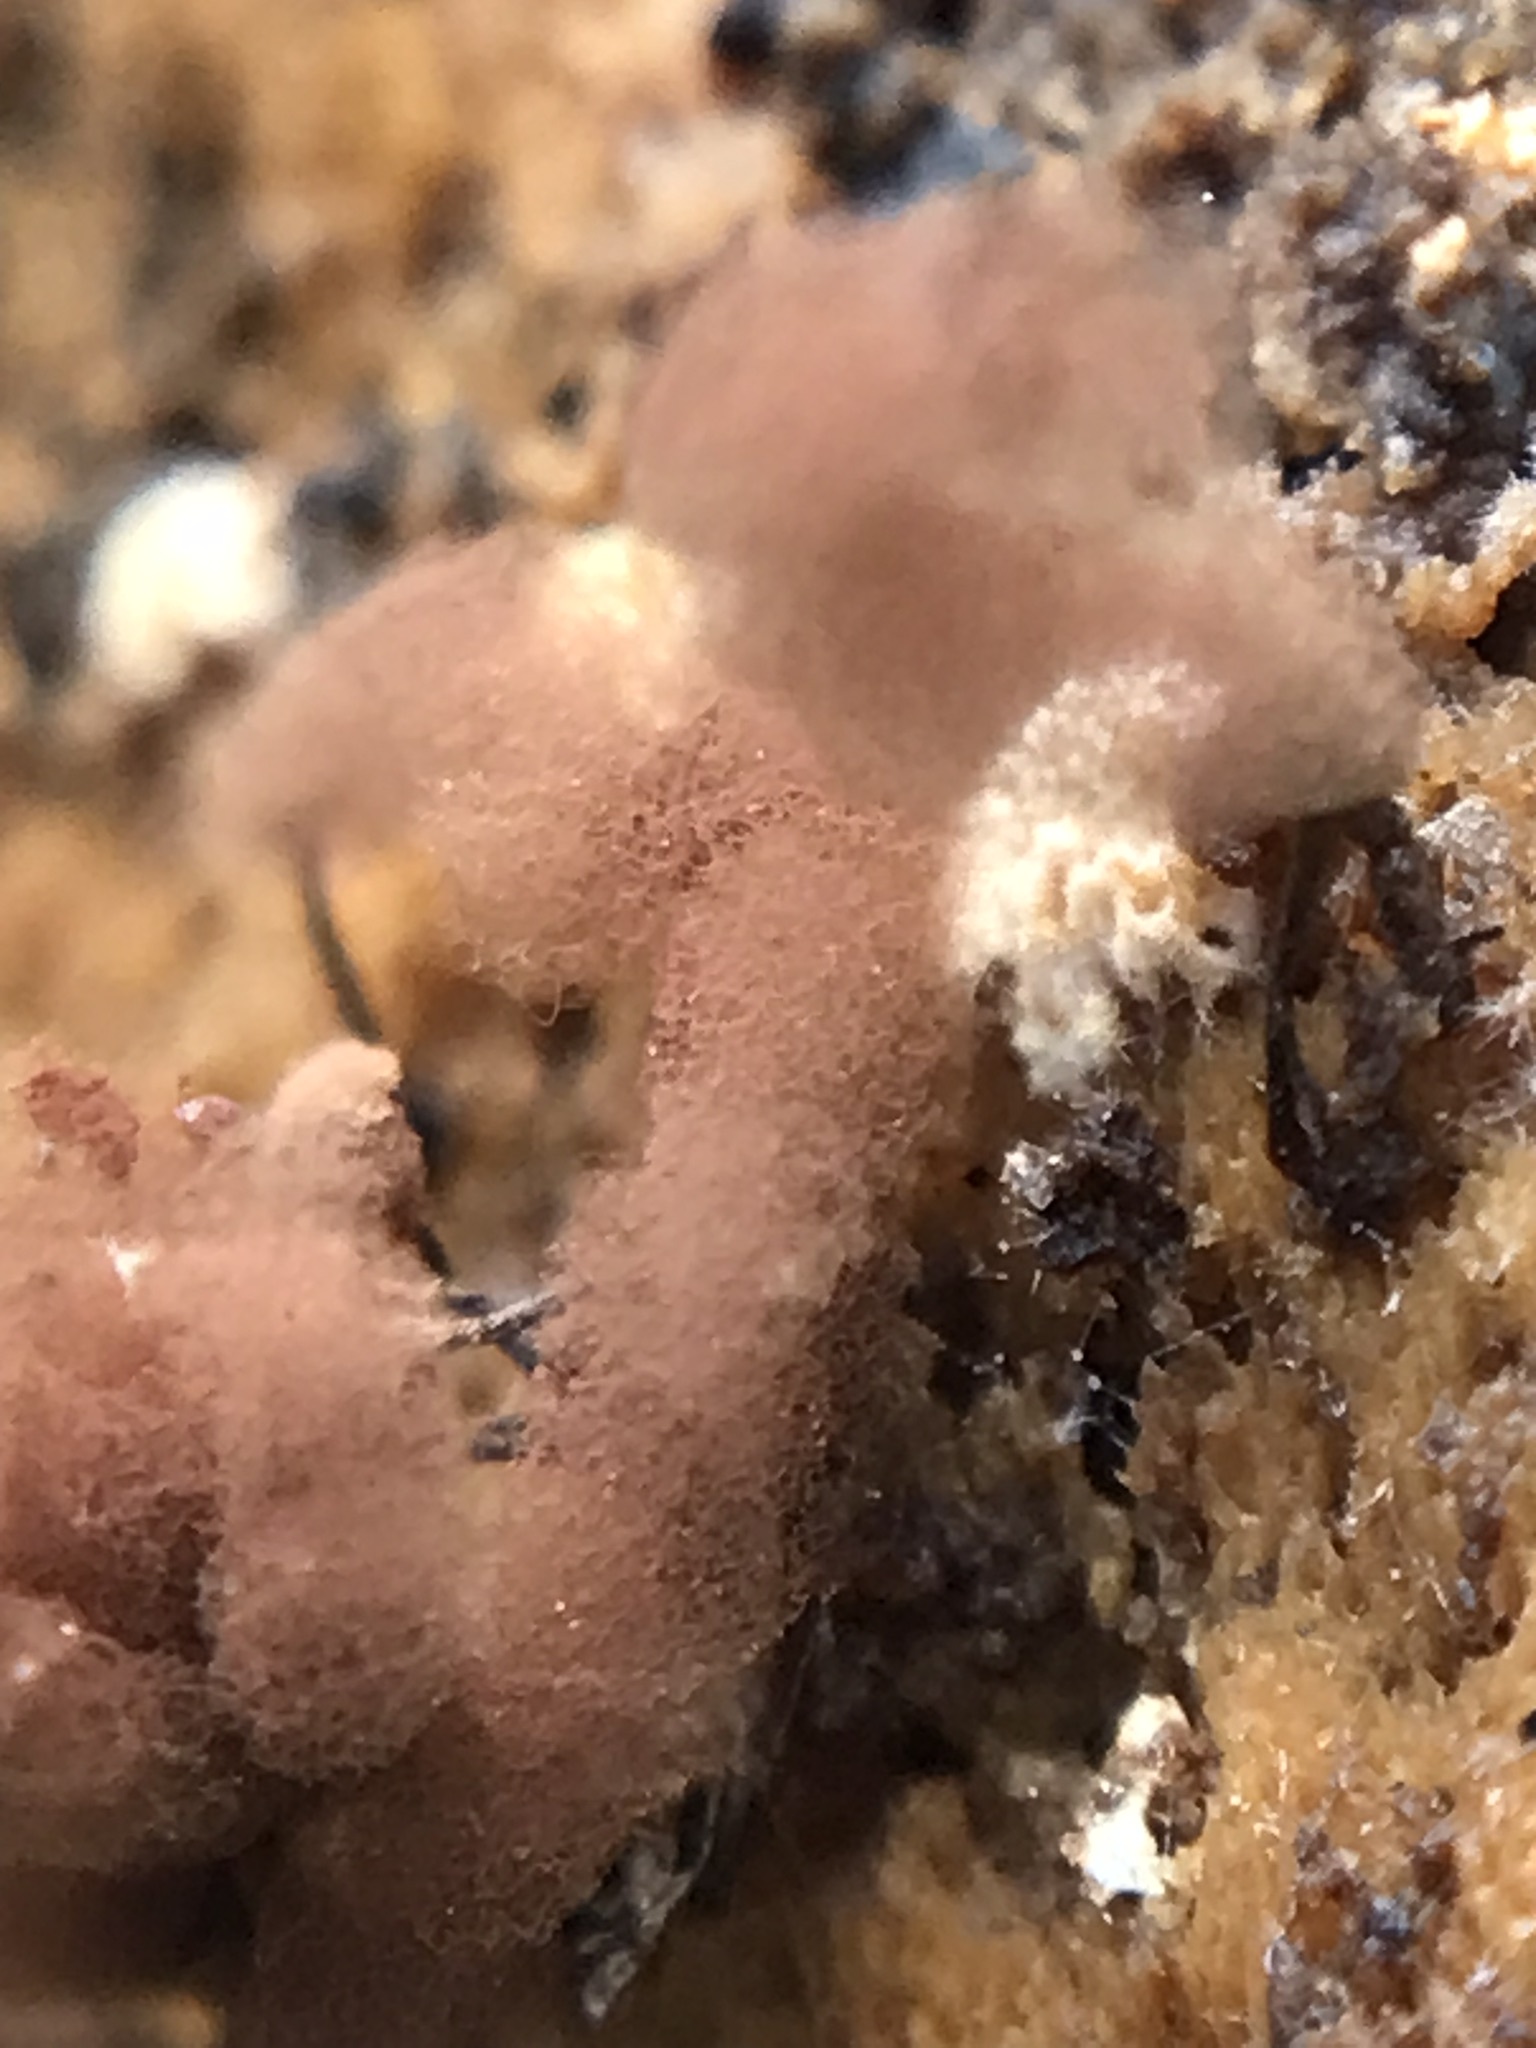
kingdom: Protozoa
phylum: Mycetozoa
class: Myxomycetes
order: Trichiales
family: Arcyriaceae
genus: Arcyria
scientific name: Arcyria denudata
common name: Carnival candy slime mold
